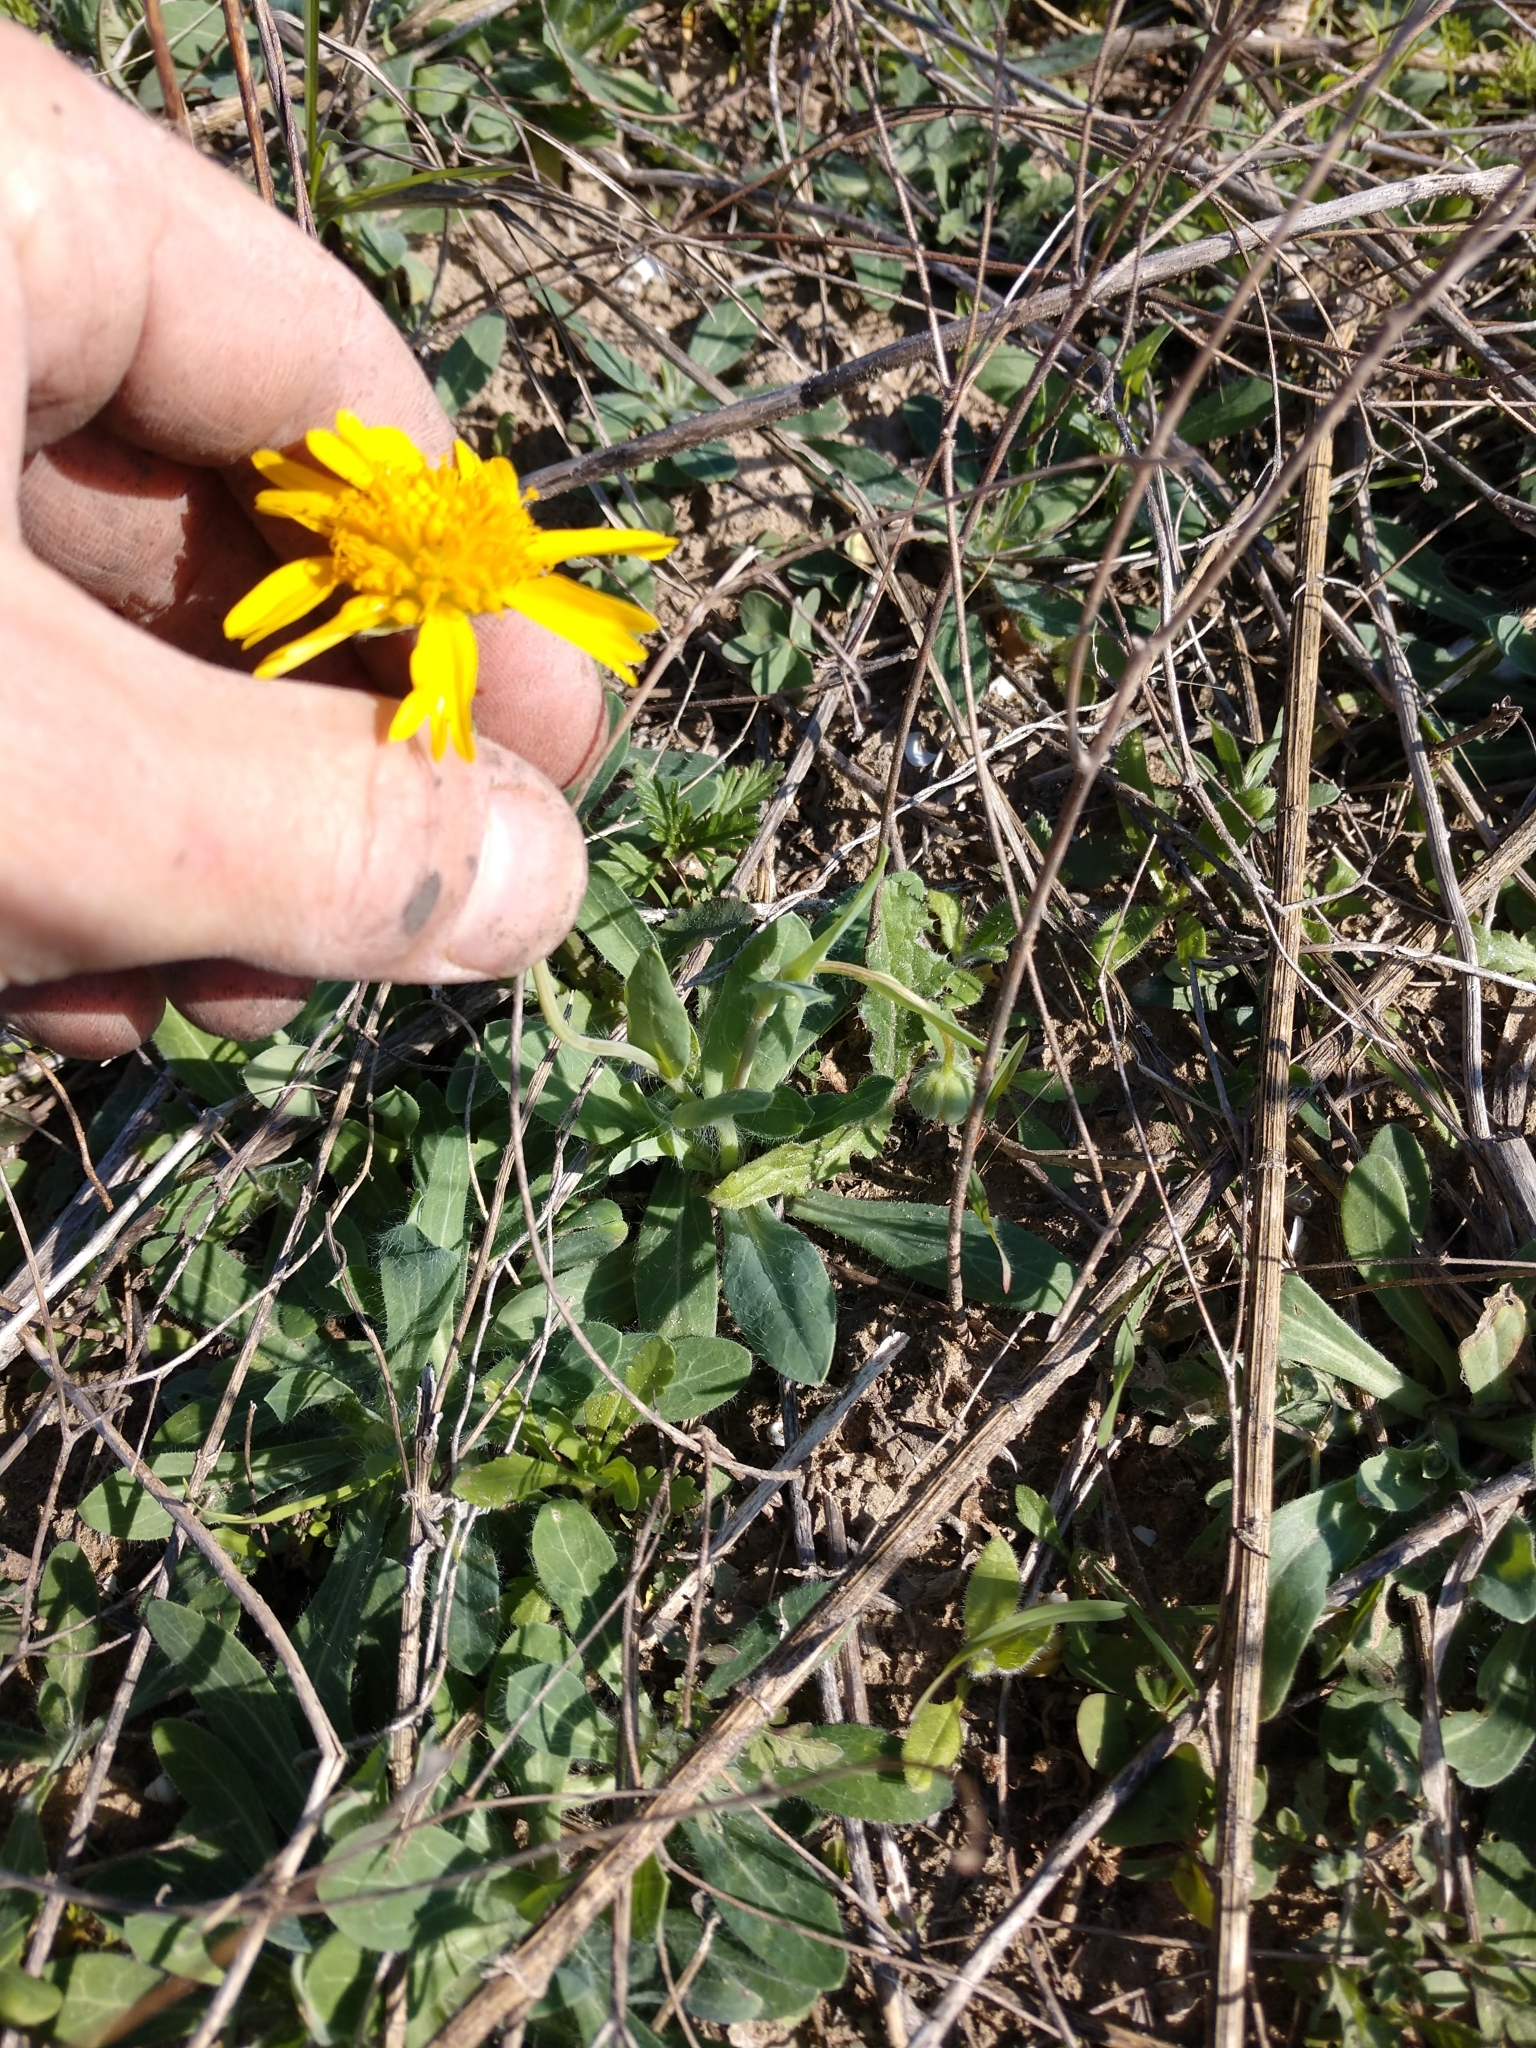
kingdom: Plantae
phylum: Tracheophyta
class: Magnoliopsida
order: Asterales
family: Asteraceae
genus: Amblyolepis
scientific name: Amblyolepis setigera
